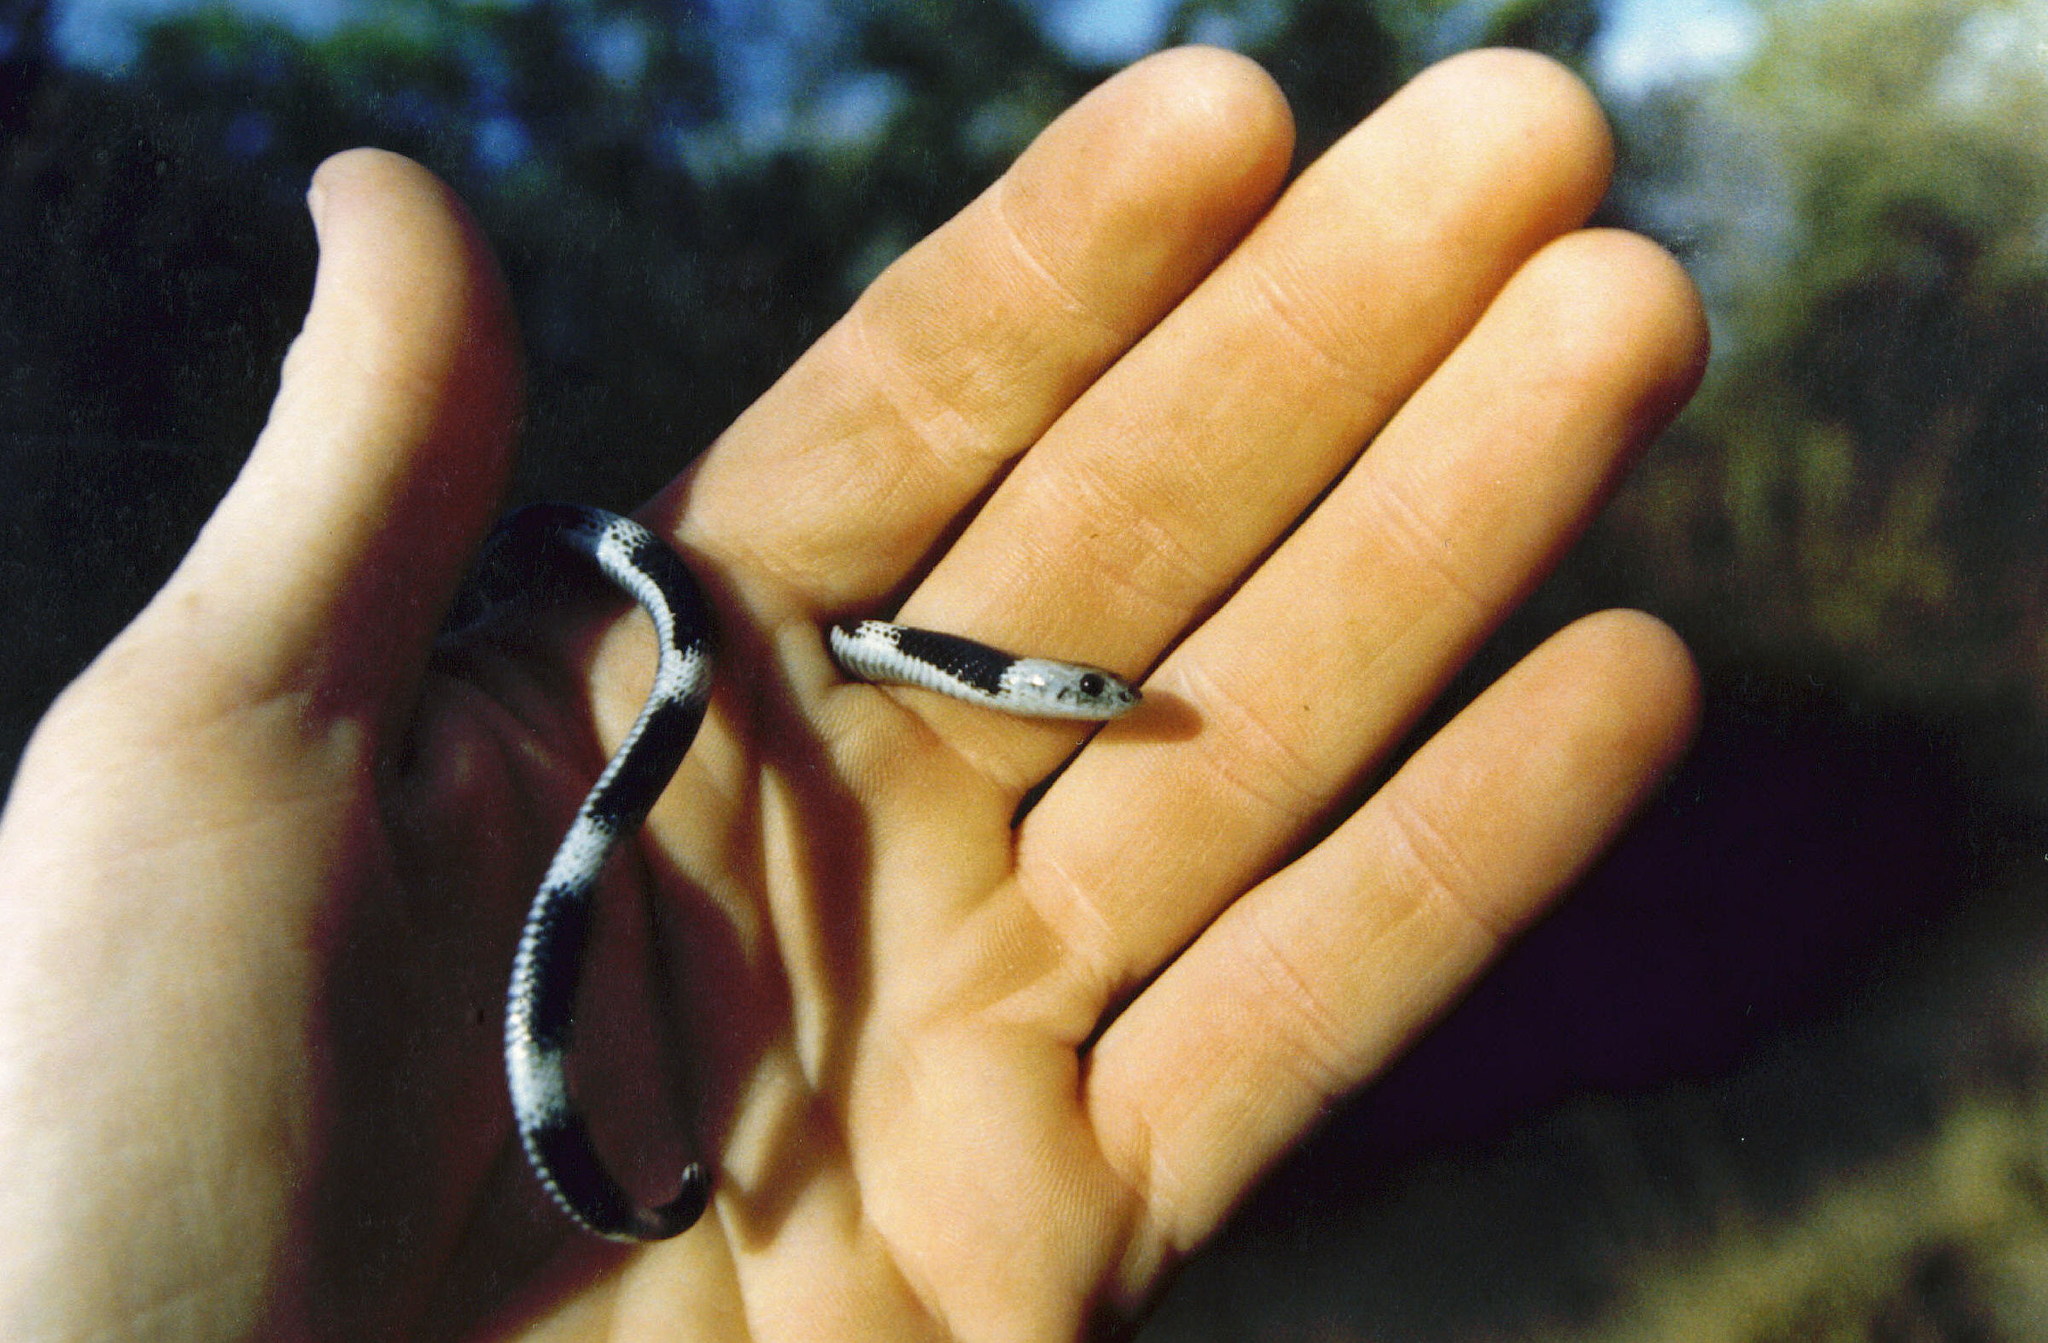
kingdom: Animalia
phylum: Chordata
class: Squamata
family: Elapidae
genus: Elapsoidea
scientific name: Elapsoidea boulengeri
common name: Boulenger's garter snake
